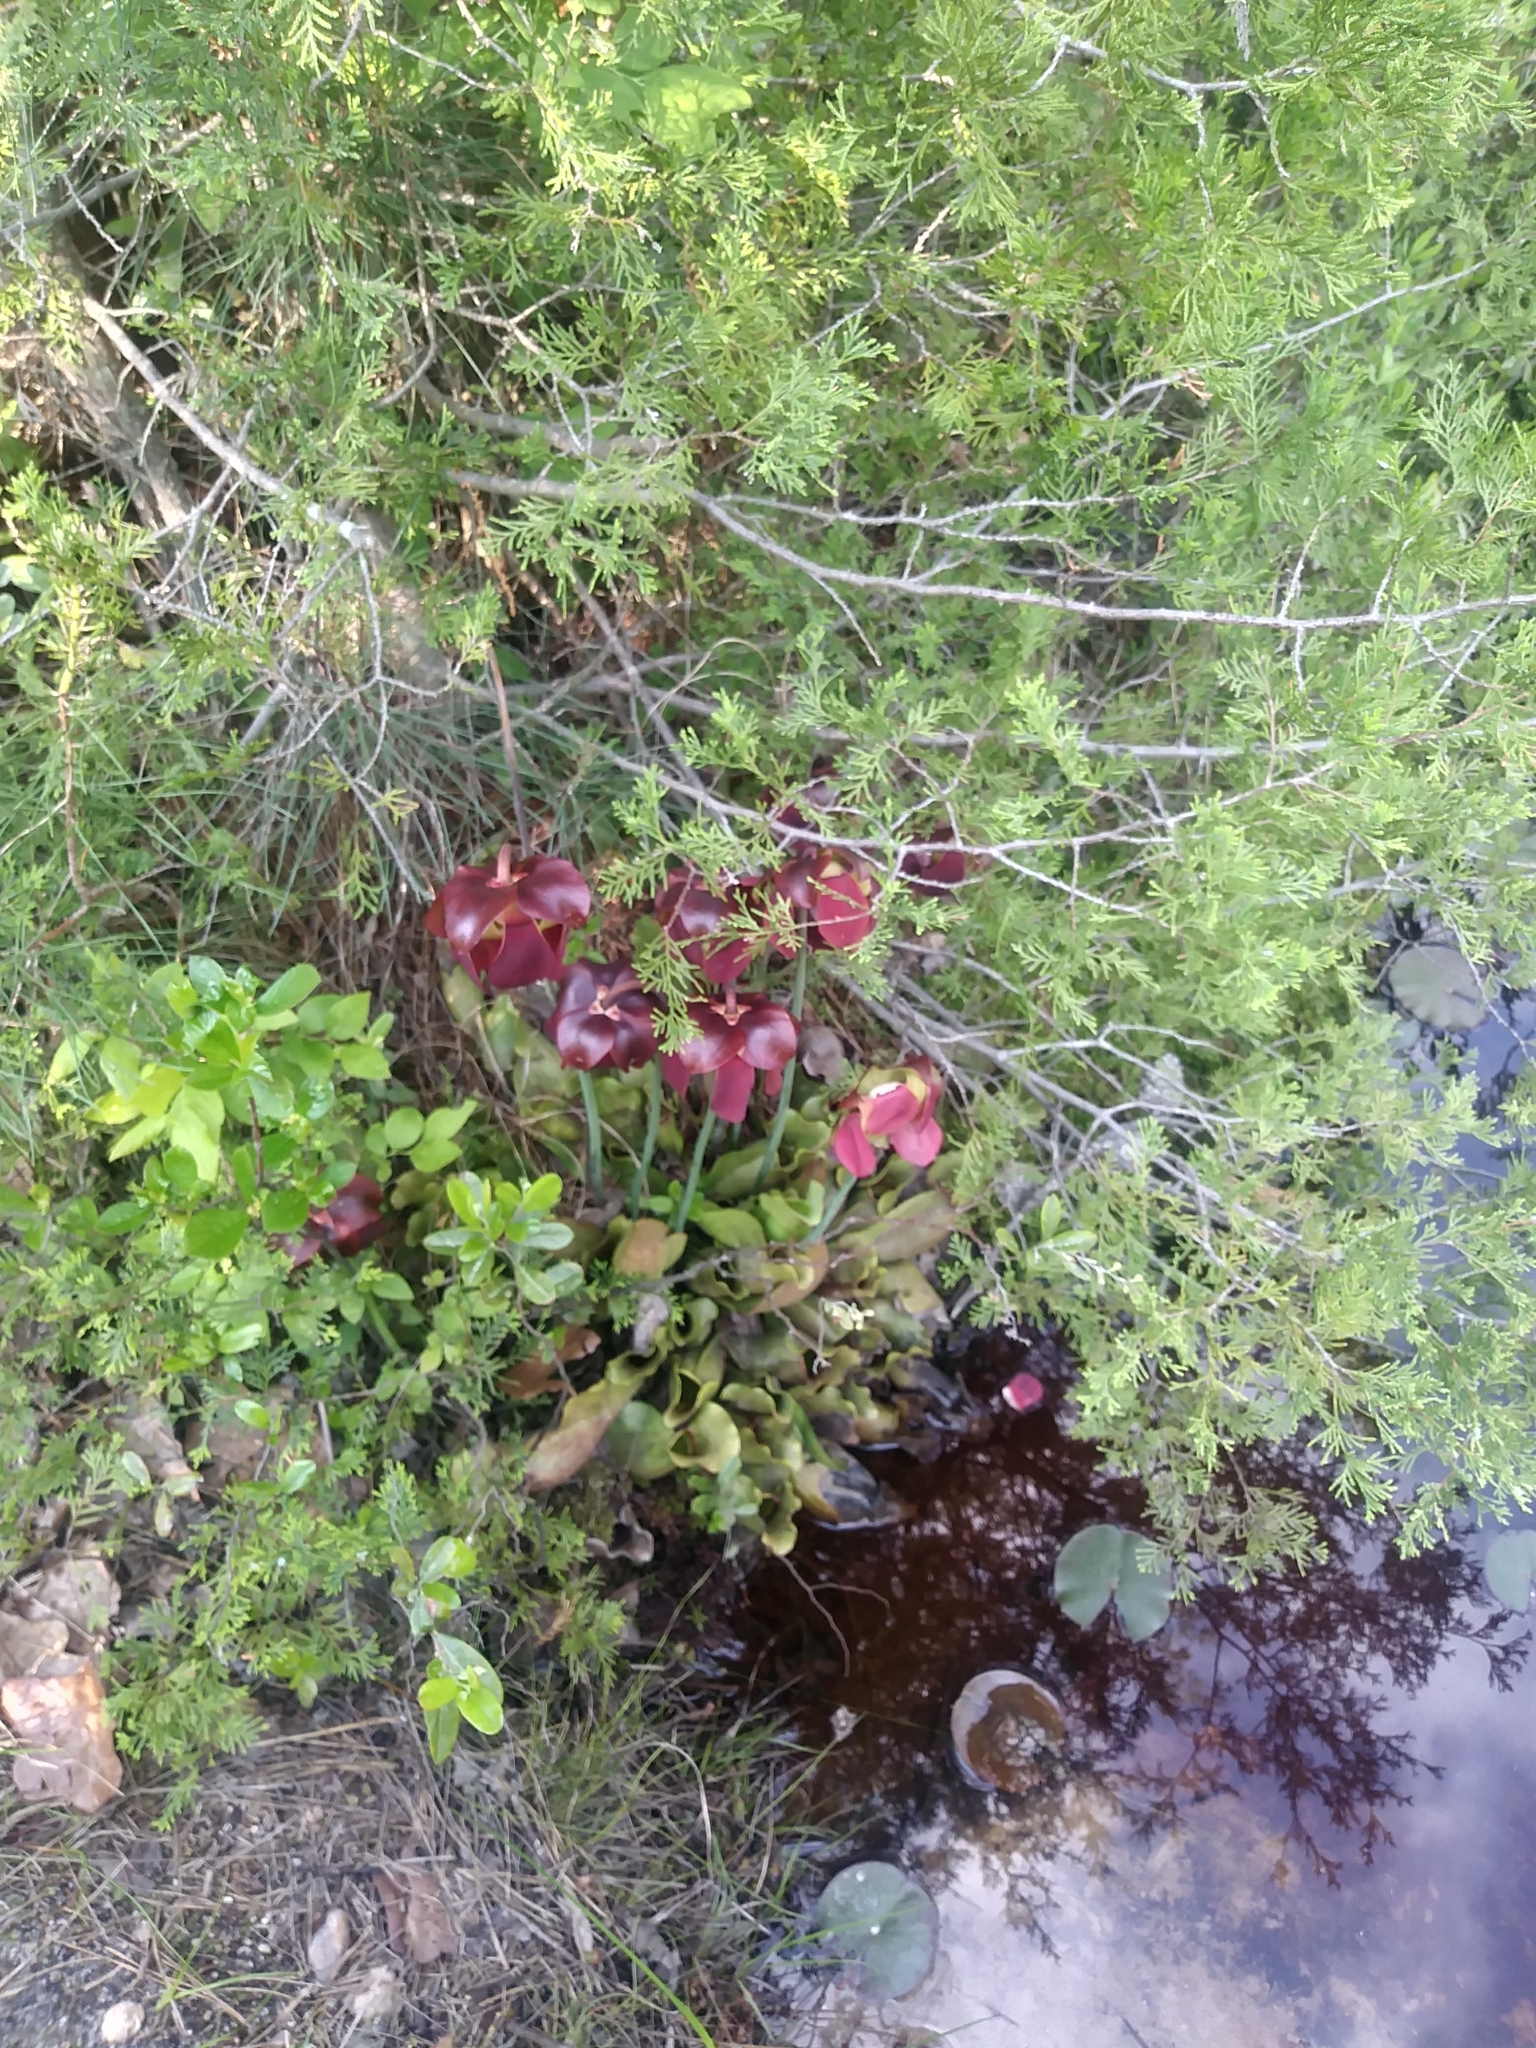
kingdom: Plantae
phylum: Tracheophyta
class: Magnoliopsida
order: Ericales
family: Sarraceniaceae
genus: Sarracenia
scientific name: Sarracenia purpurea
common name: Pitcherplant
